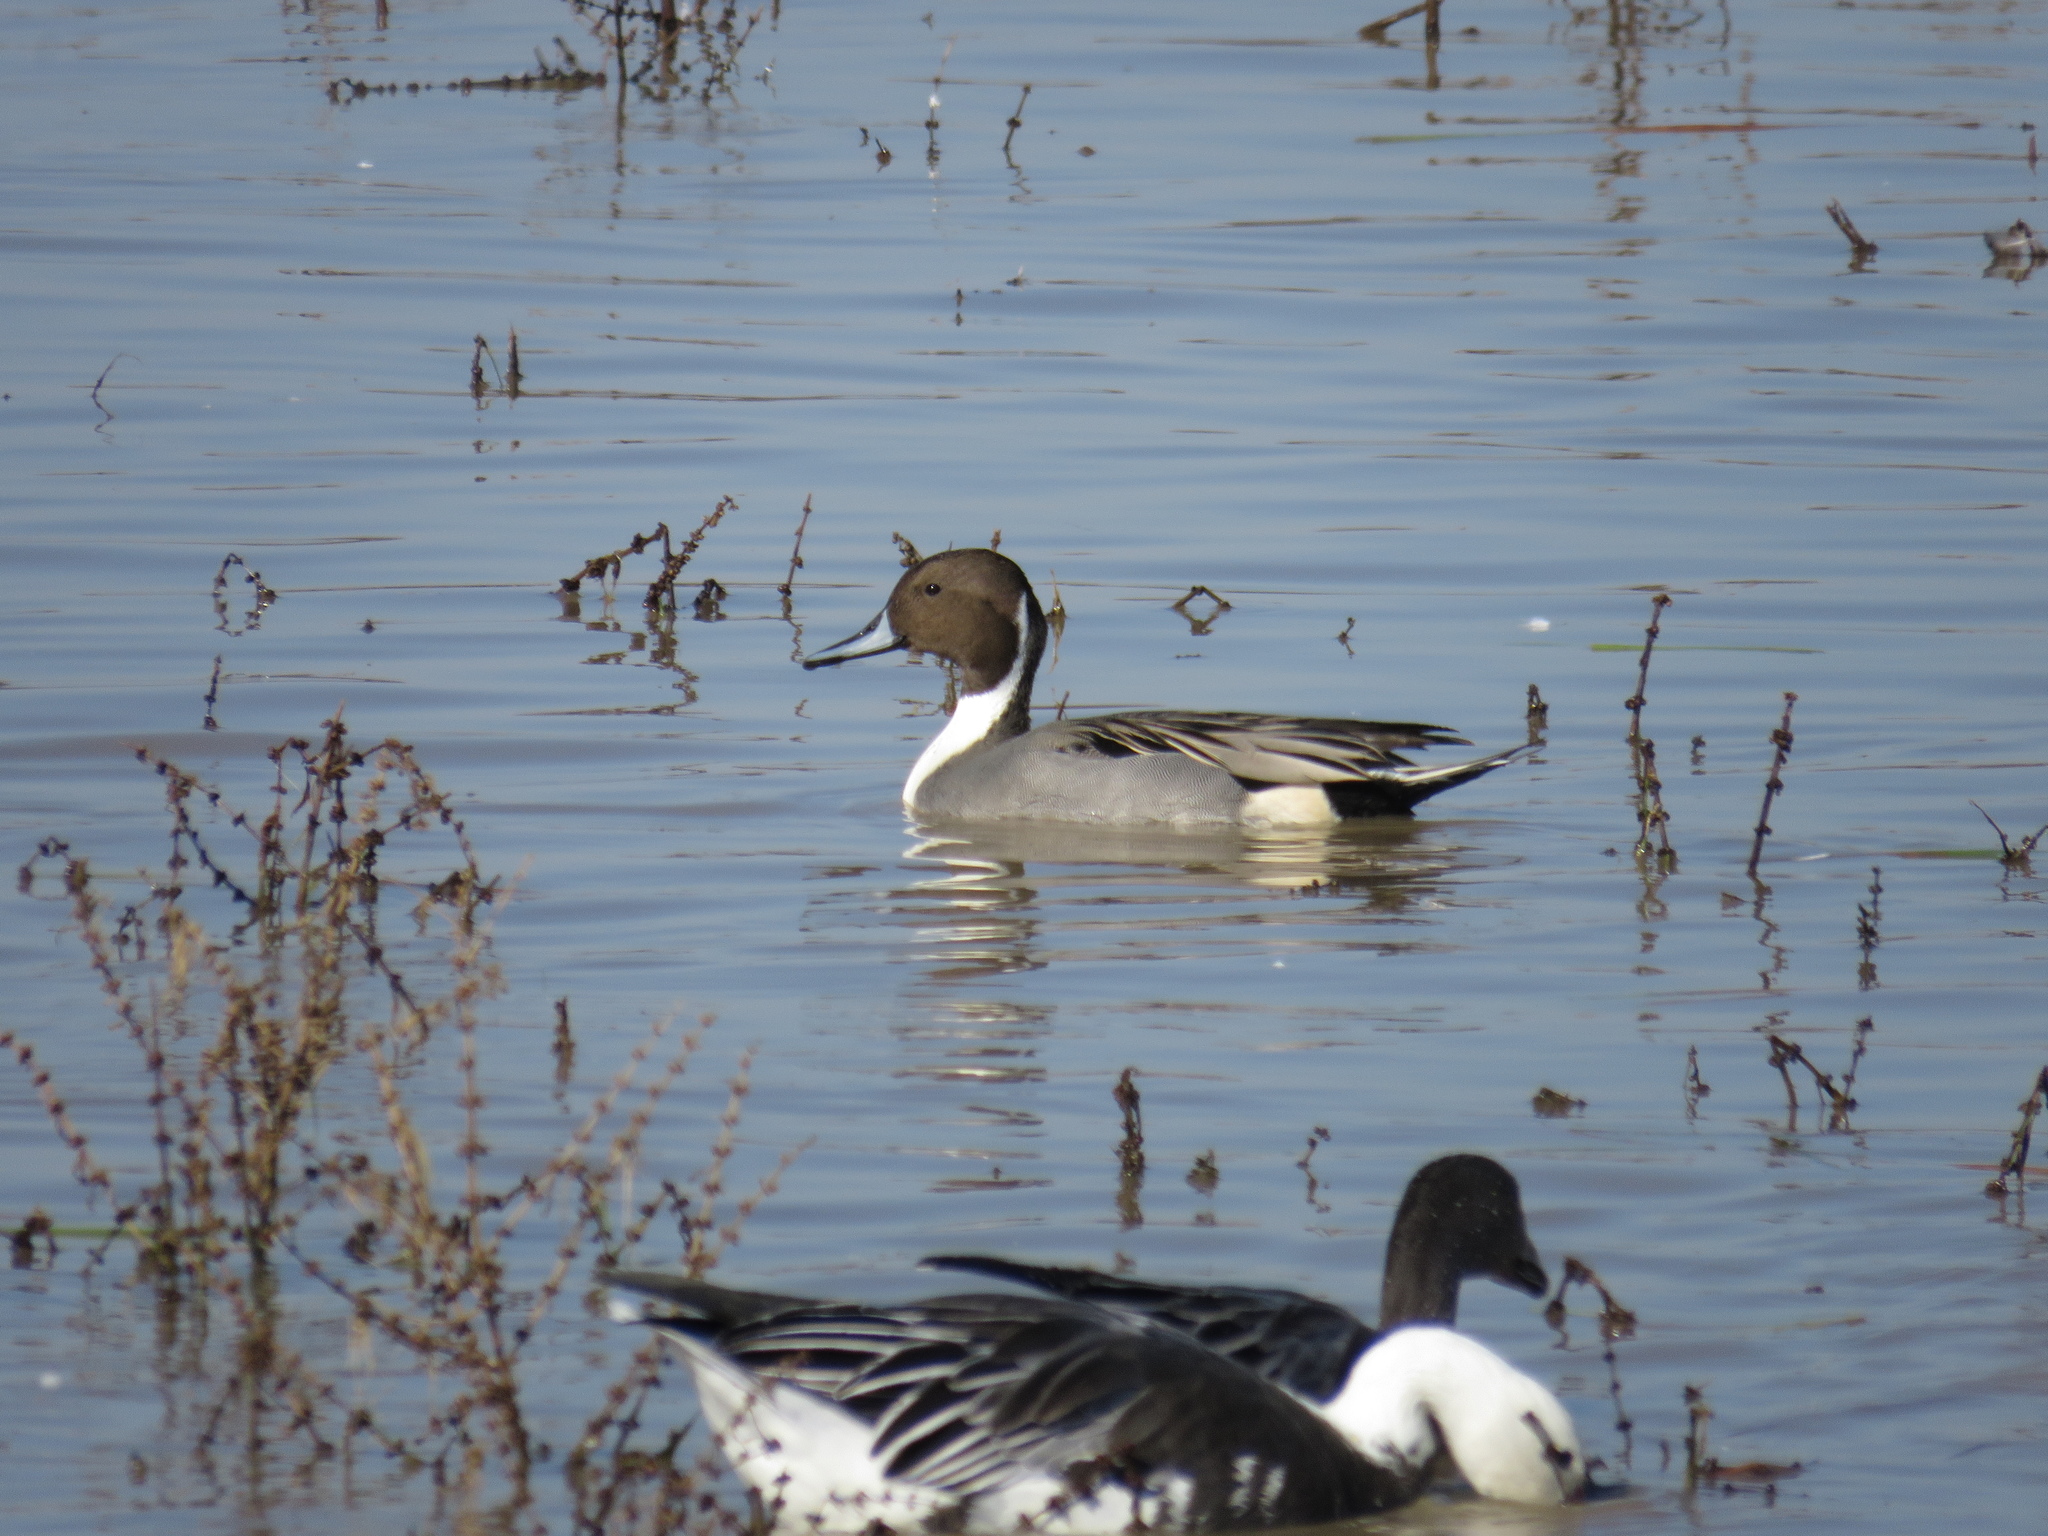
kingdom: Animalia
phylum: Chordata
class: Aves
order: Anseriformes
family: Anatidae
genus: Anas
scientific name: Anas acuta
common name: Northern pintail
